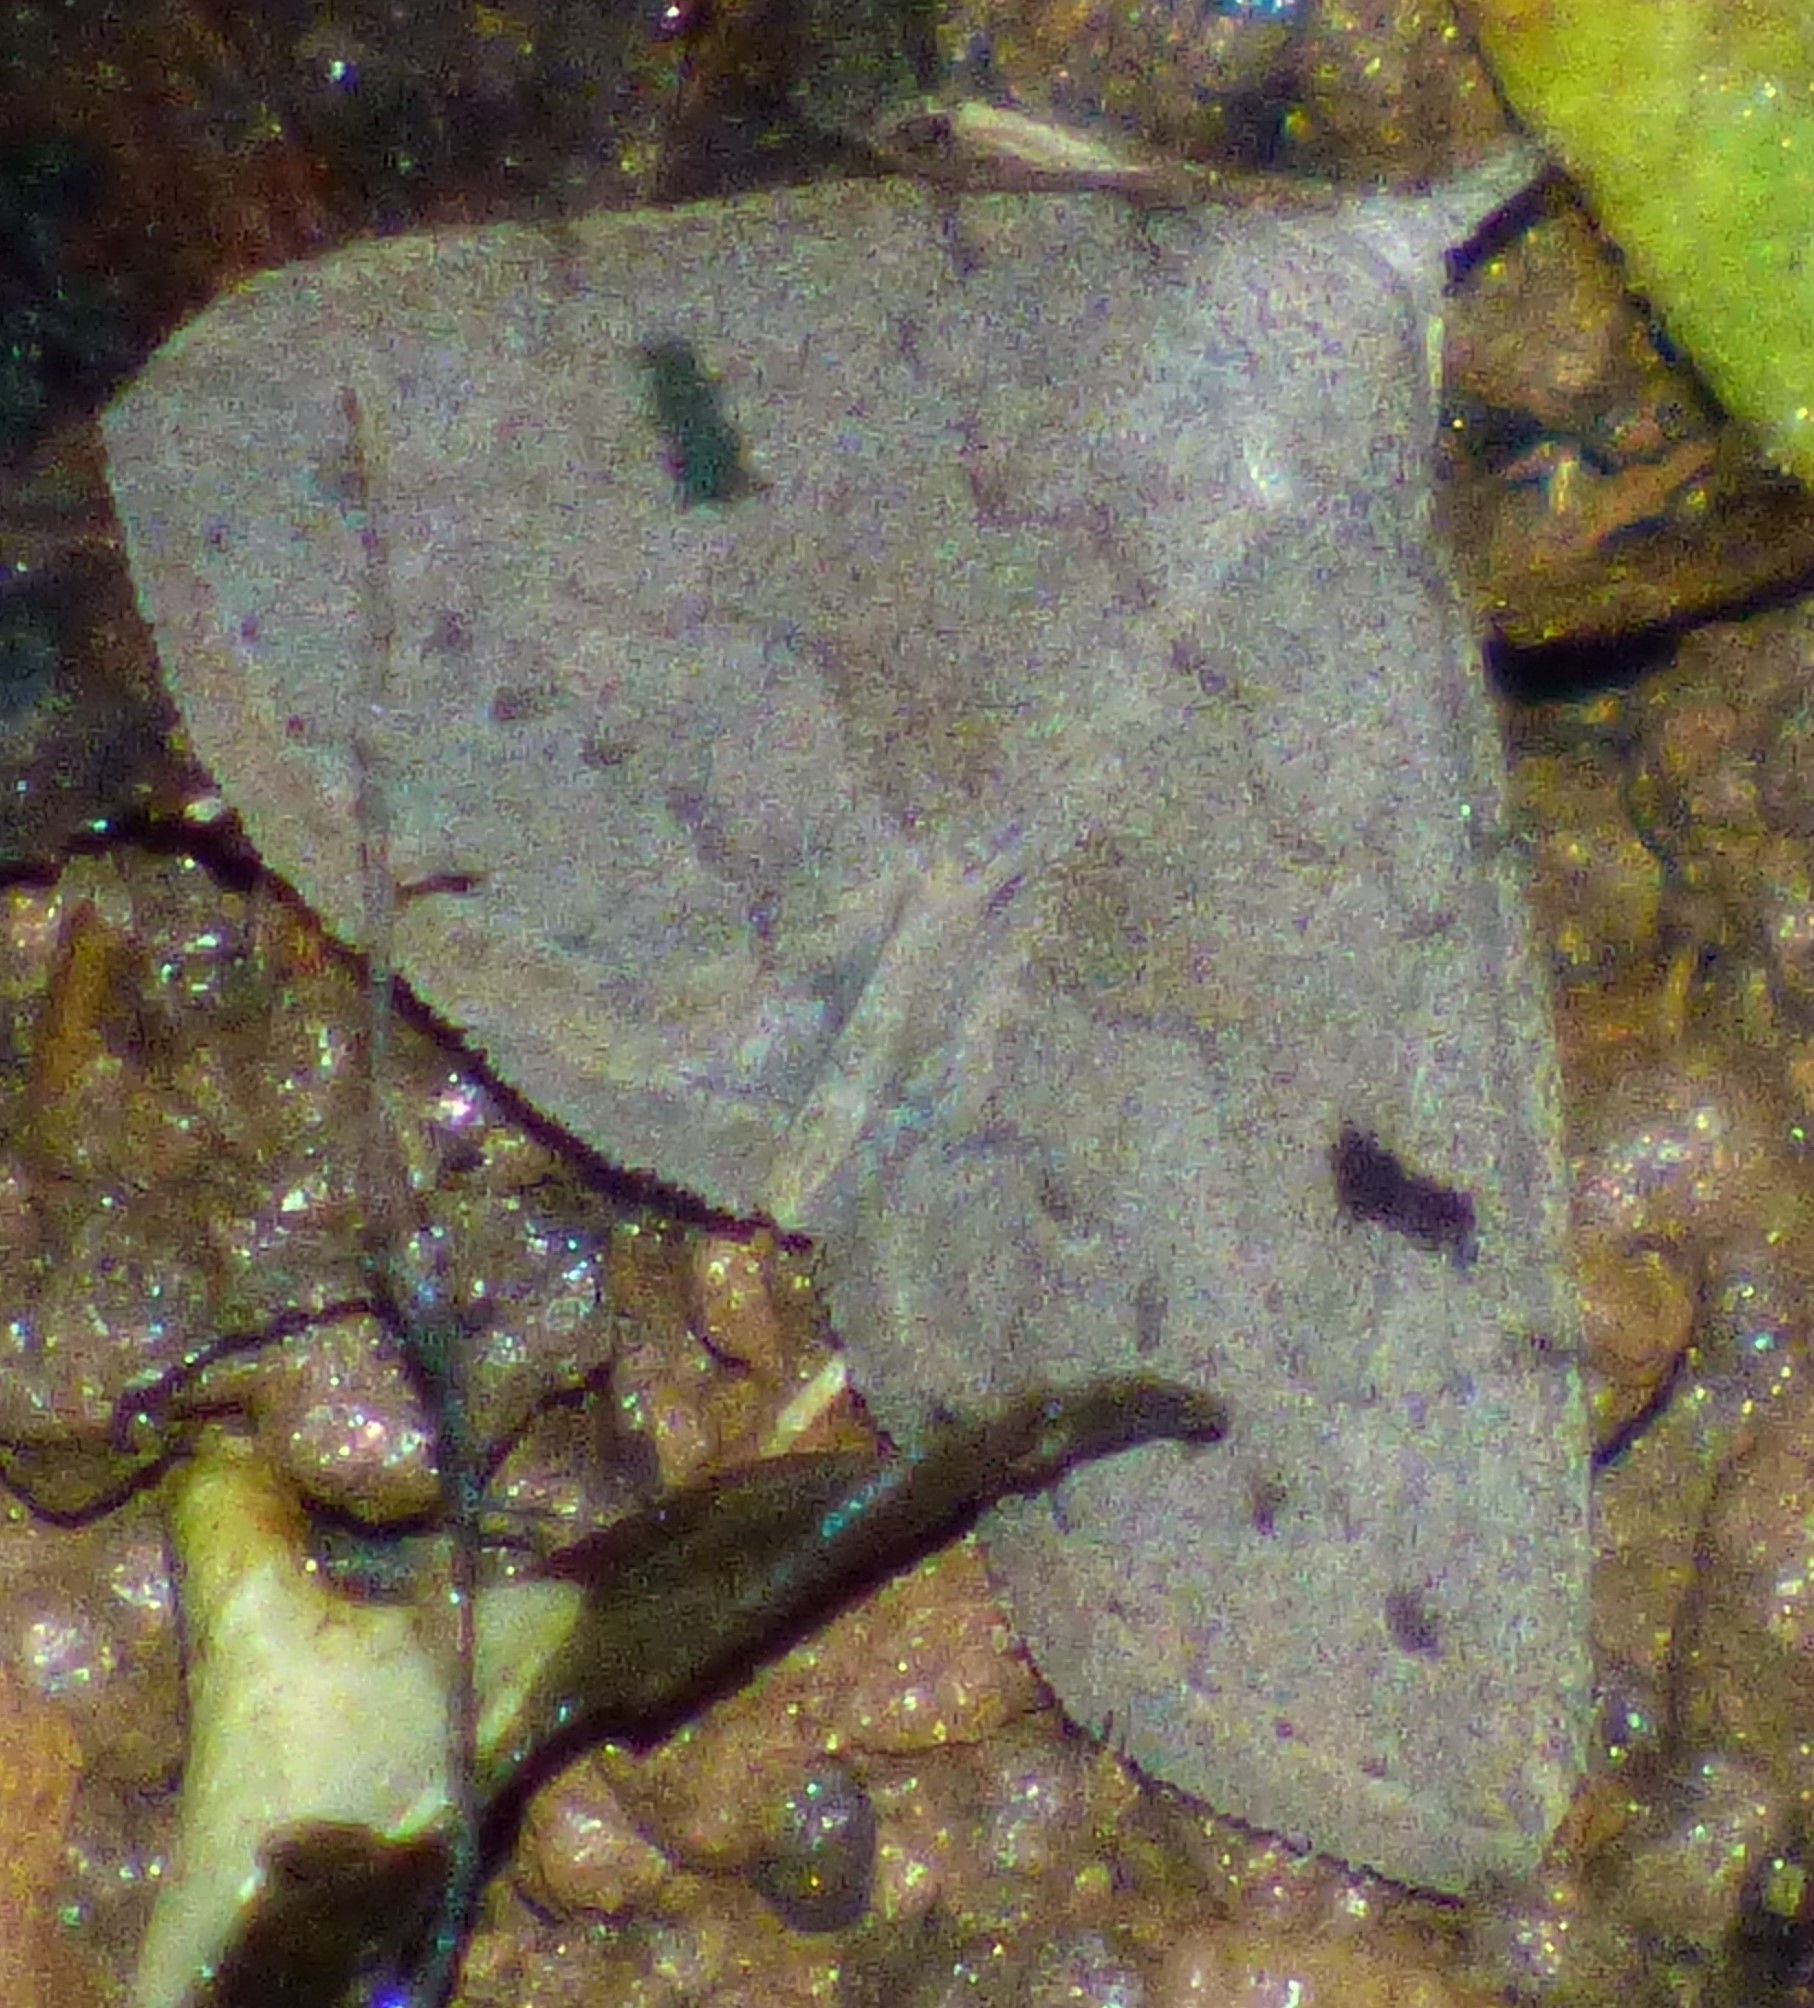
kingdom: Animalia
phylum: Arthropoda
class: Insecta
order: Lepidoptera
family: Erebidae
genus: Macrochilo
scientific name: Macrochilo morbidalis
